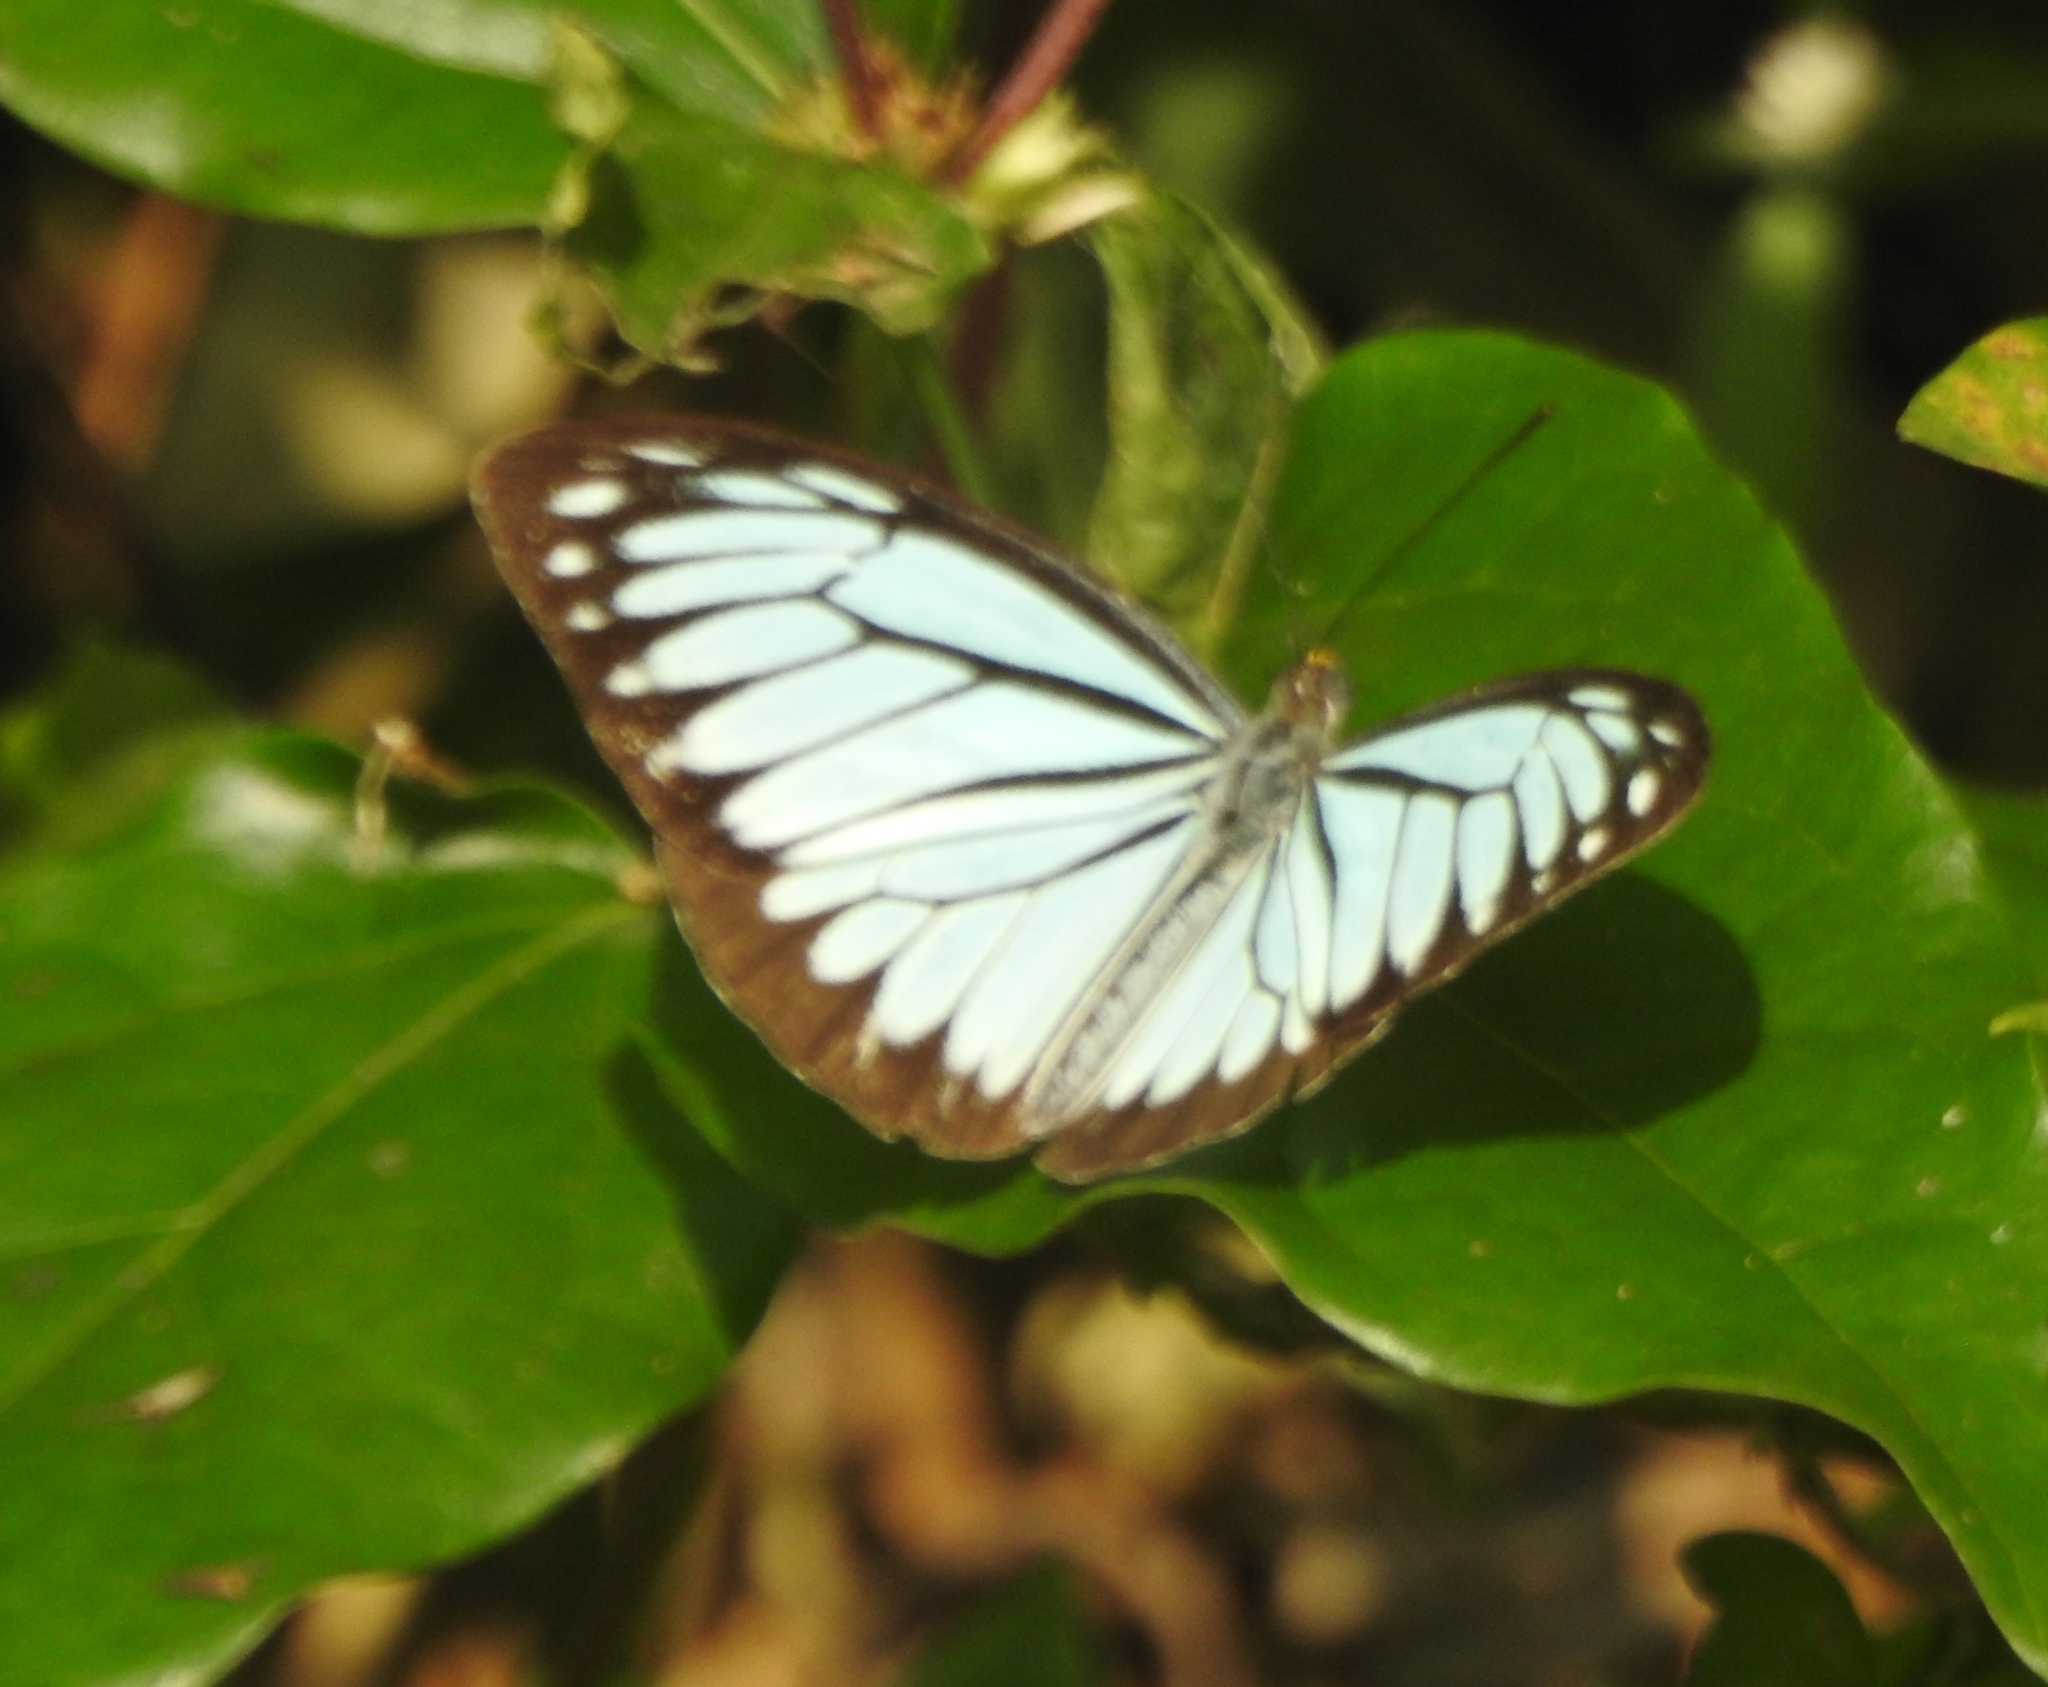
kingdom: Animalia
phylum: Arthropoda
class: Insecta
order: Lepidoptera
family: Pieridae
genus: Pareronia
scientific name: Pareronia hippia
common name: Indian wanderer
